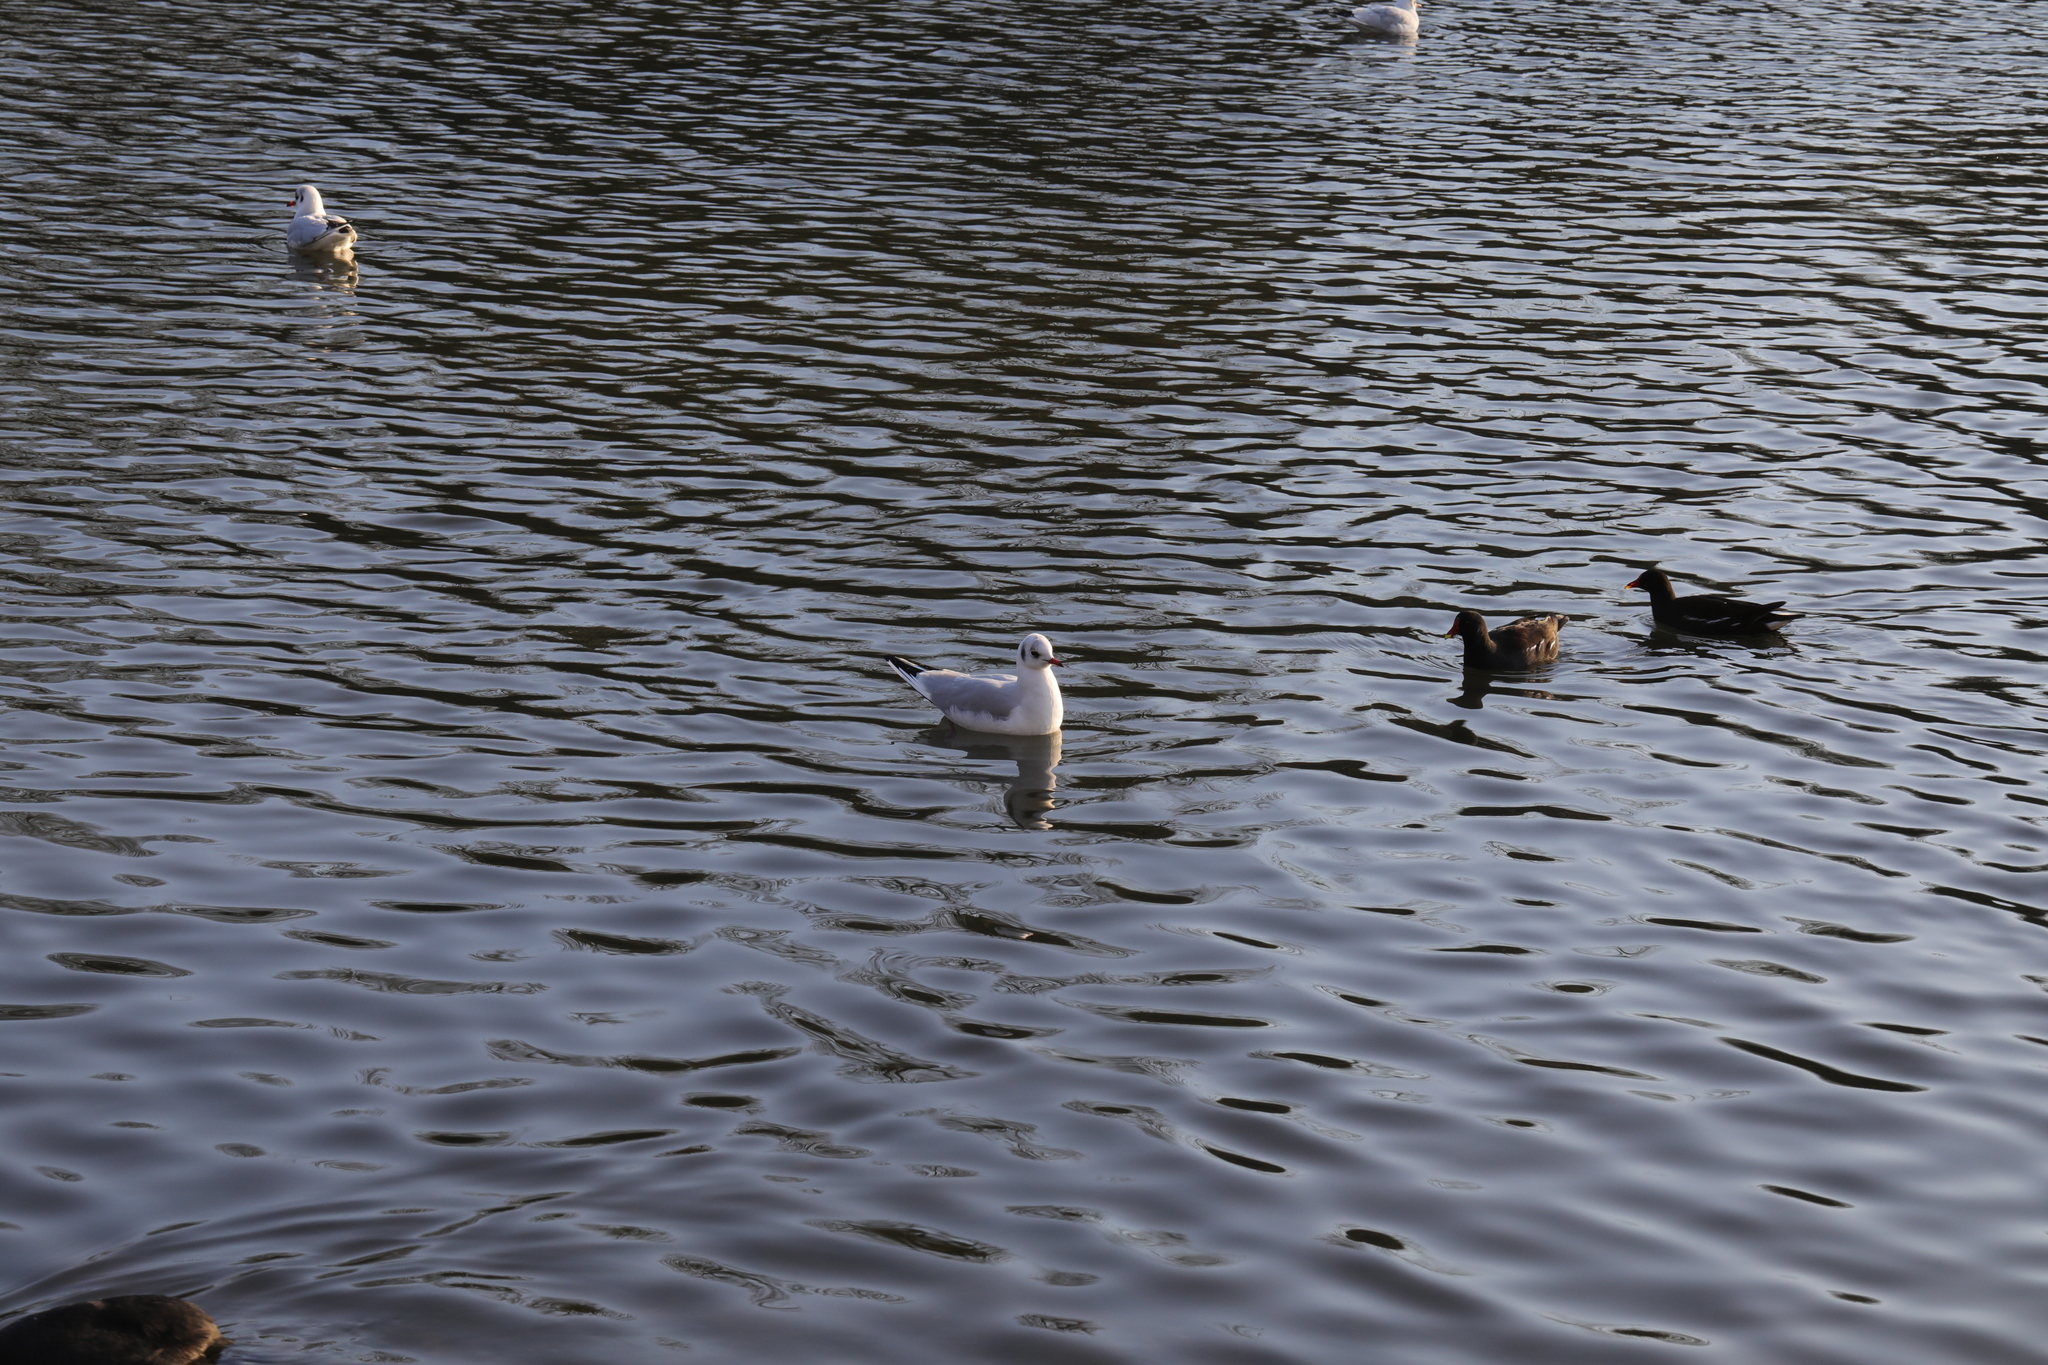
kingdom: Animalia
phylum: Chordata
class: Aves
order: Charadriiformes
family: Laridae
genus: Chroicocephalus
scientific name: Chroicocephalus ridibundus
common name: Black-headed gull
